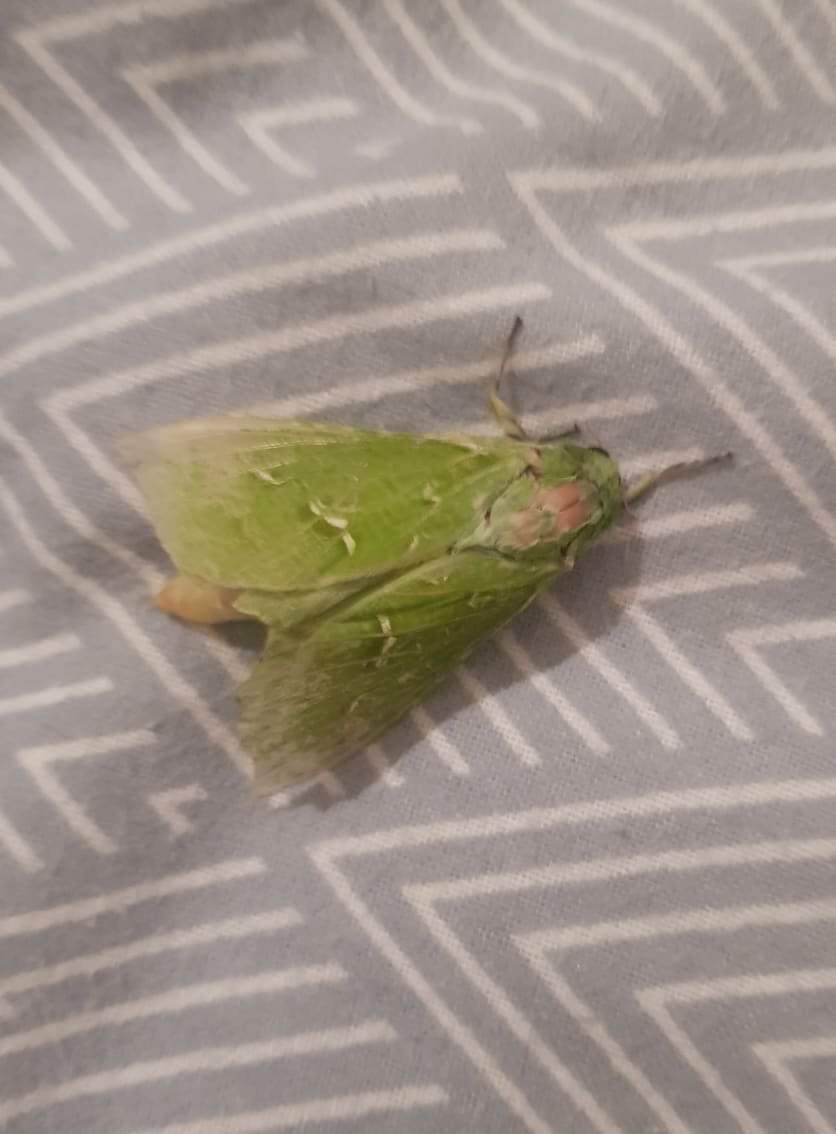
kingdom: Animalia
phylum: Arthropoda
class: Insecta
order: Lepidoptera
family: Hepialidae
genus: Aenetus
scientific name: Aenetus virescens
